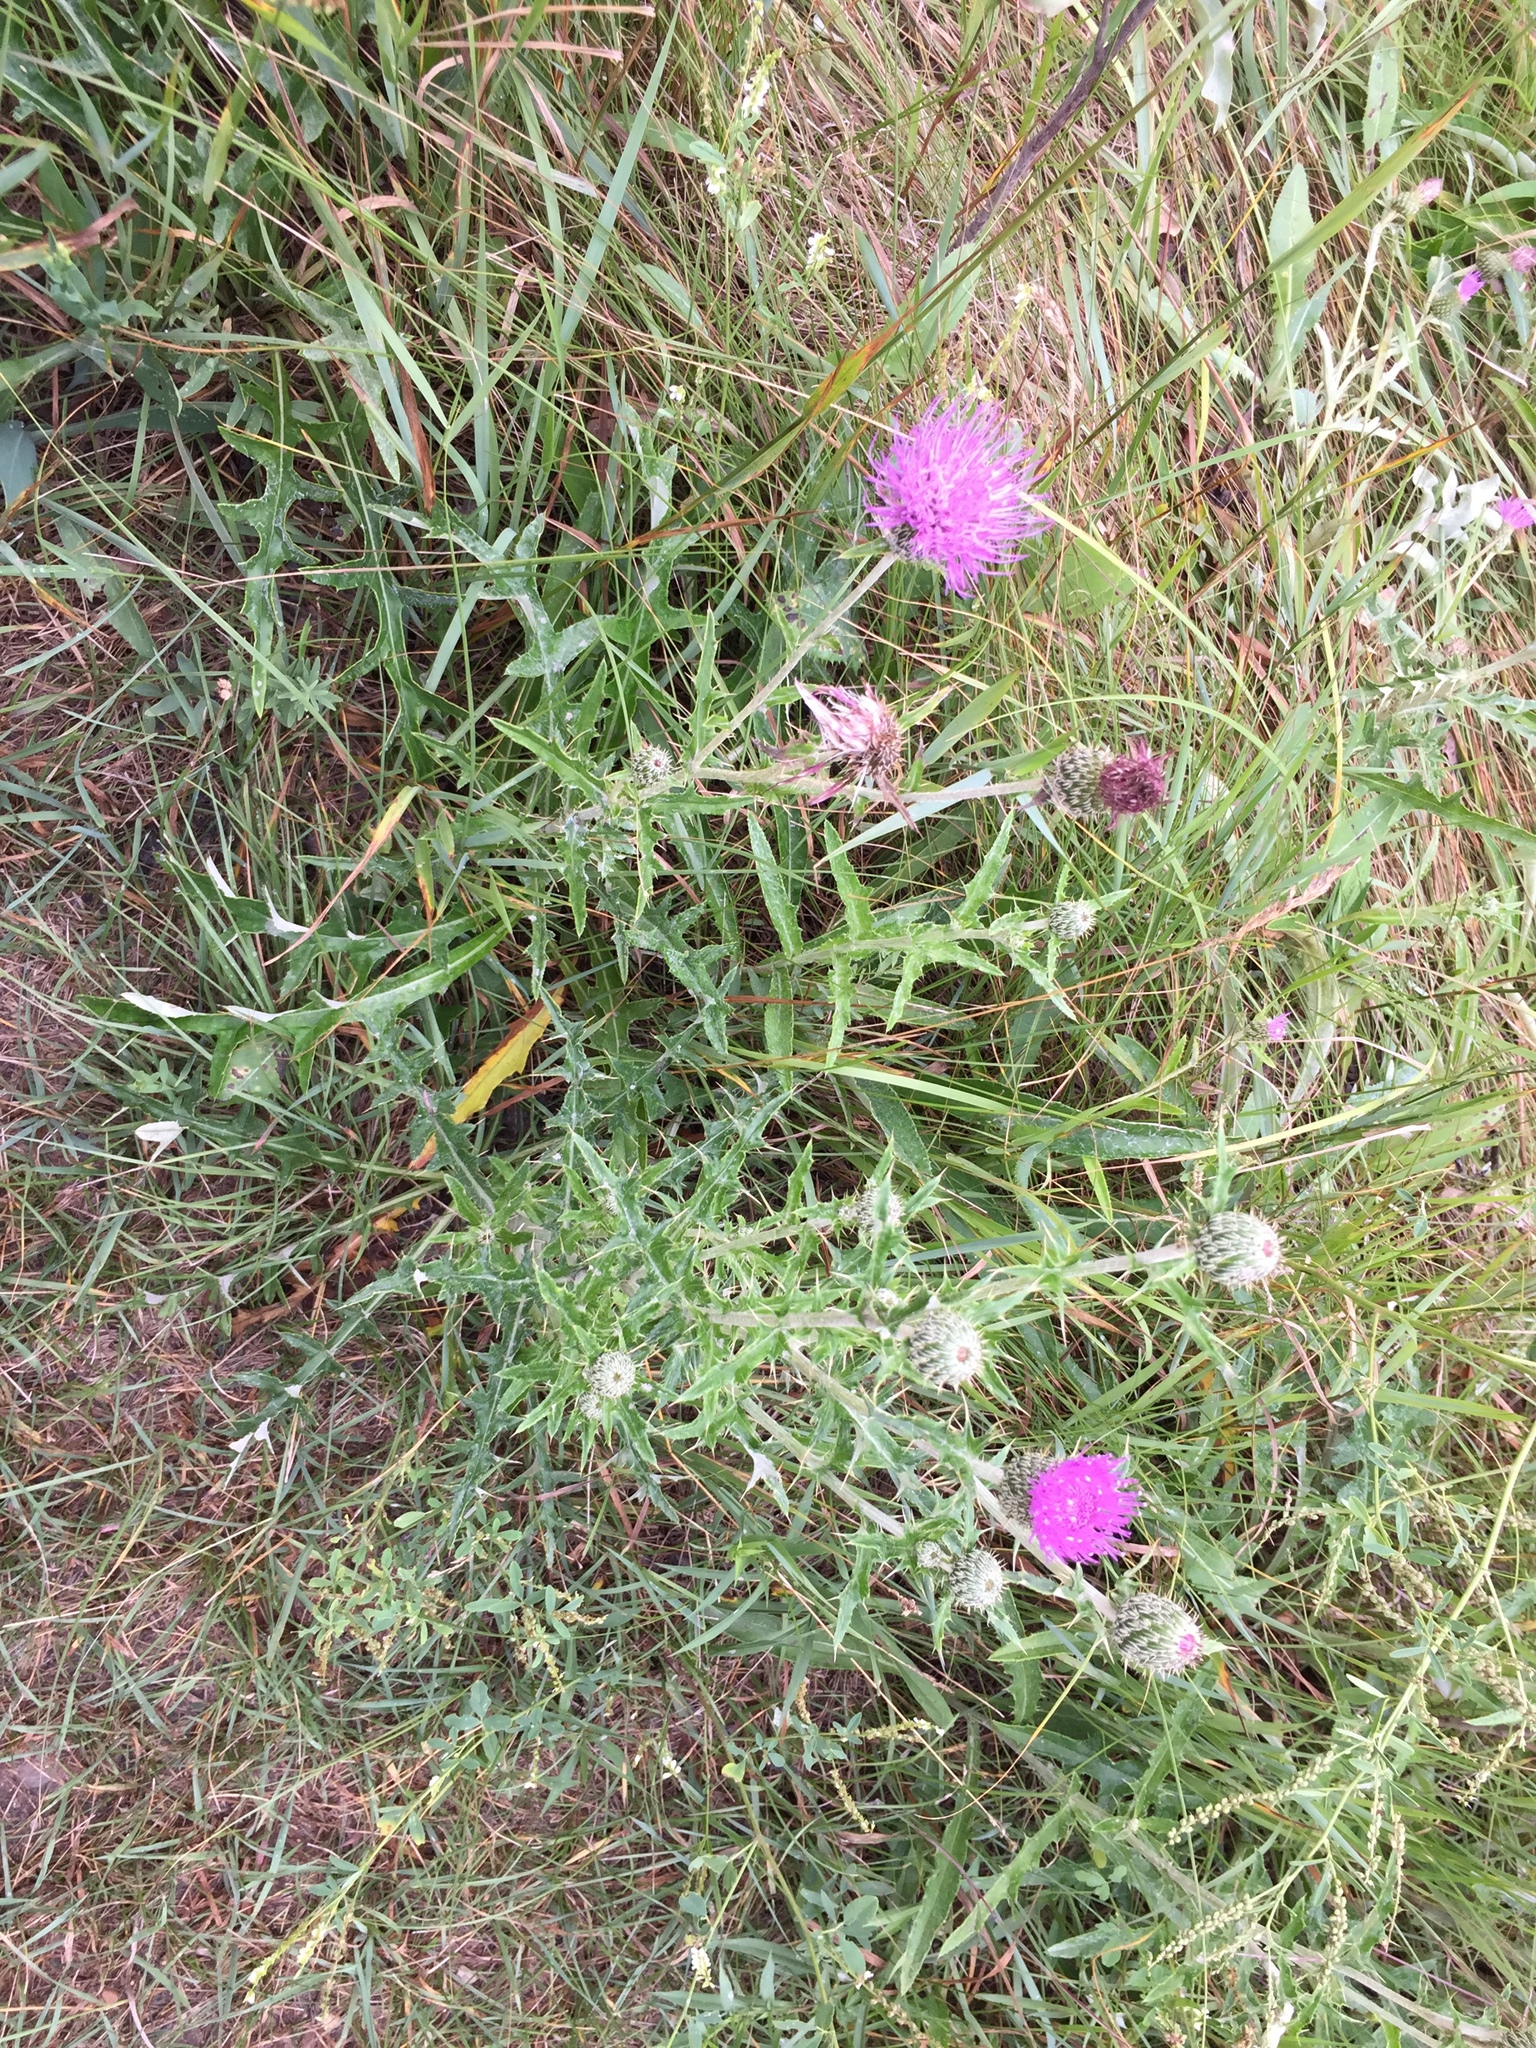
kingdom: Plantae
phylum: Tracheophyta
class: Magnoliopsida
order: Asterales
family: Asteraceae
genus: Cirsium
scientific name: Cirsium flodmanii
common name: Flodman's thistle
